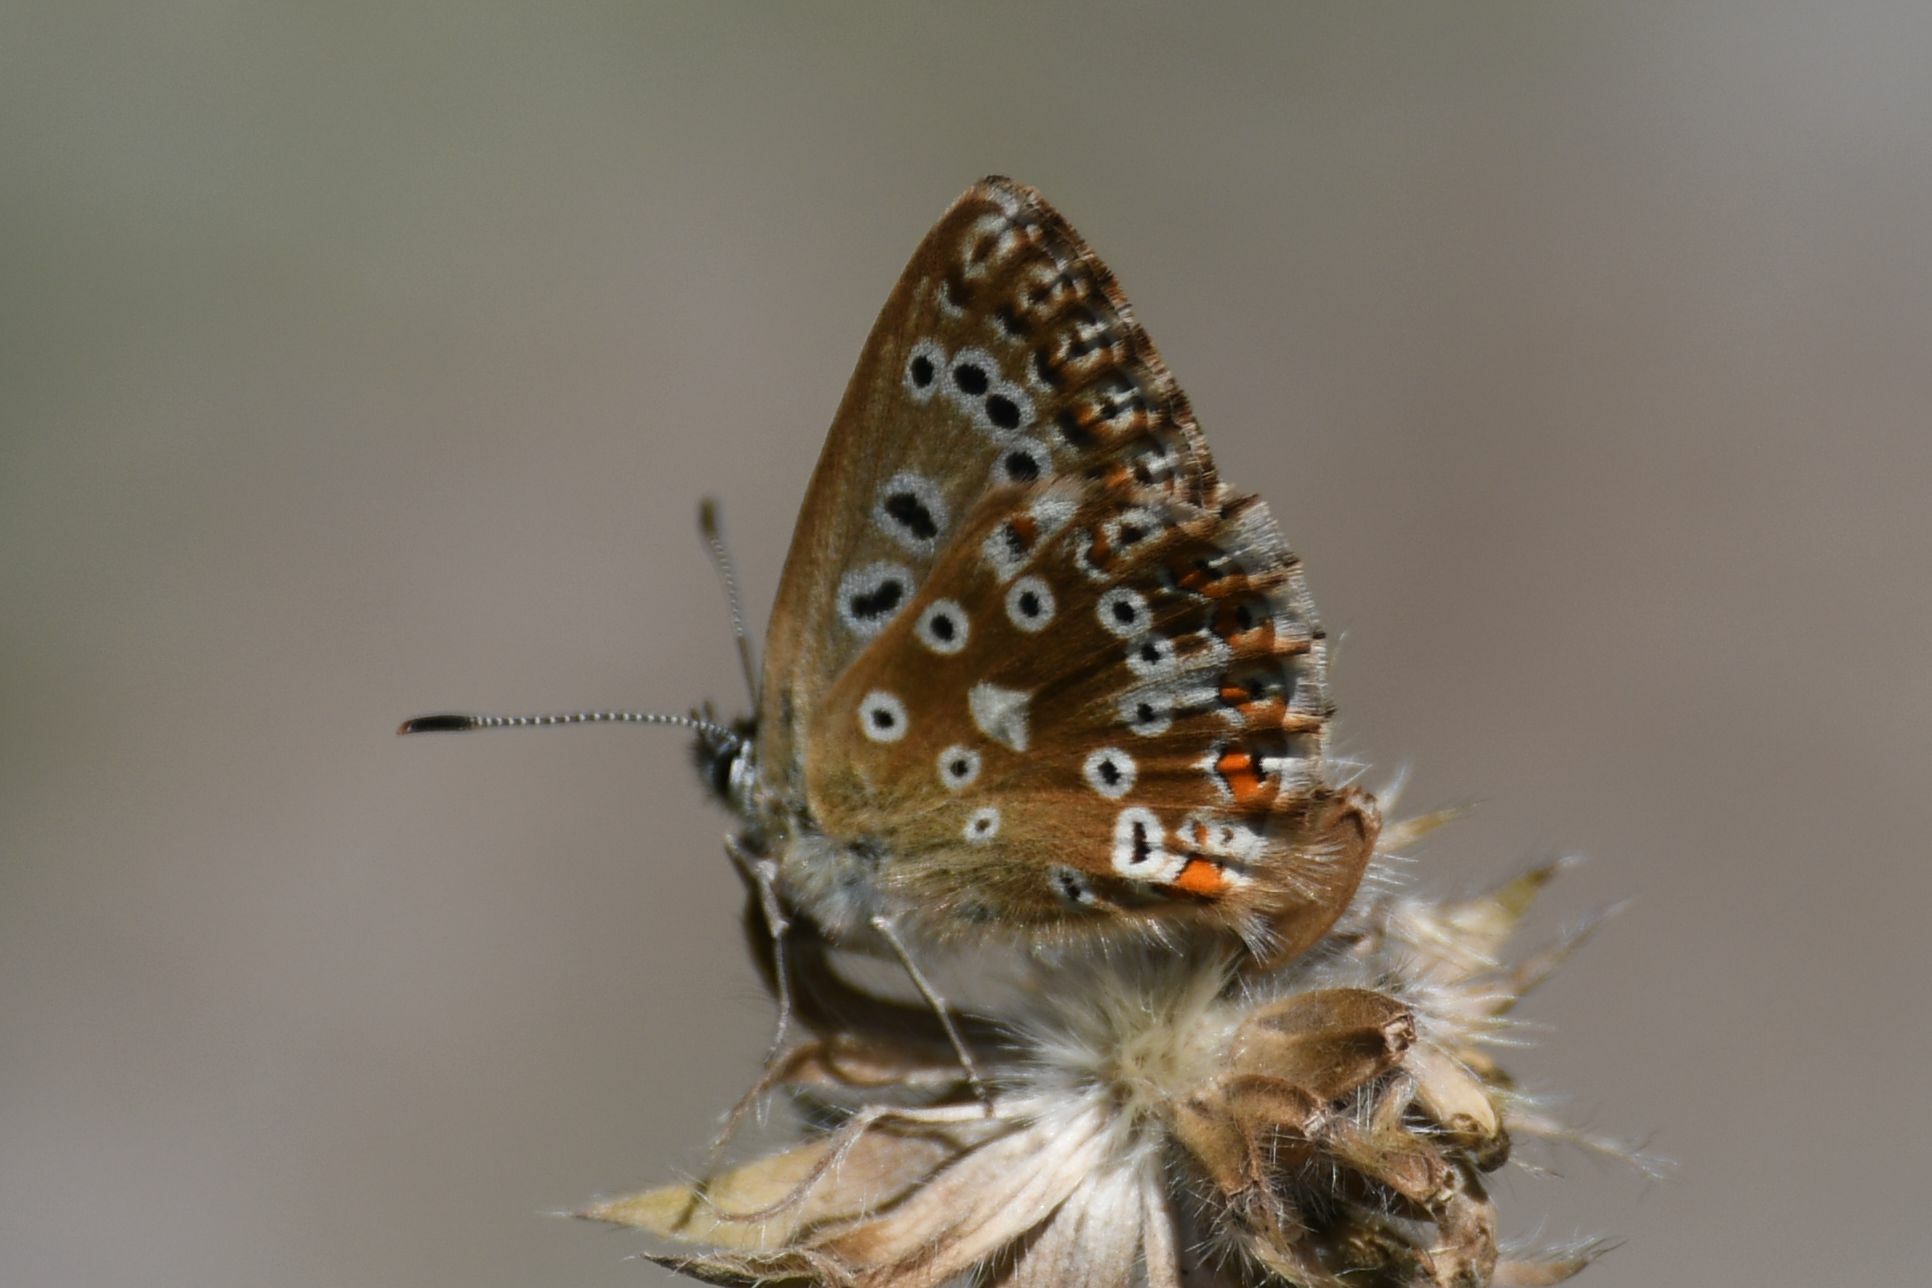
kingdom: Animalia
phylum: Arthropoda
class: Insecta
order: Lepidoptera
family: Lycaenidae
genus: Lysandra
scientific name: Lysandra coridon
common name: Chalkhill blue
